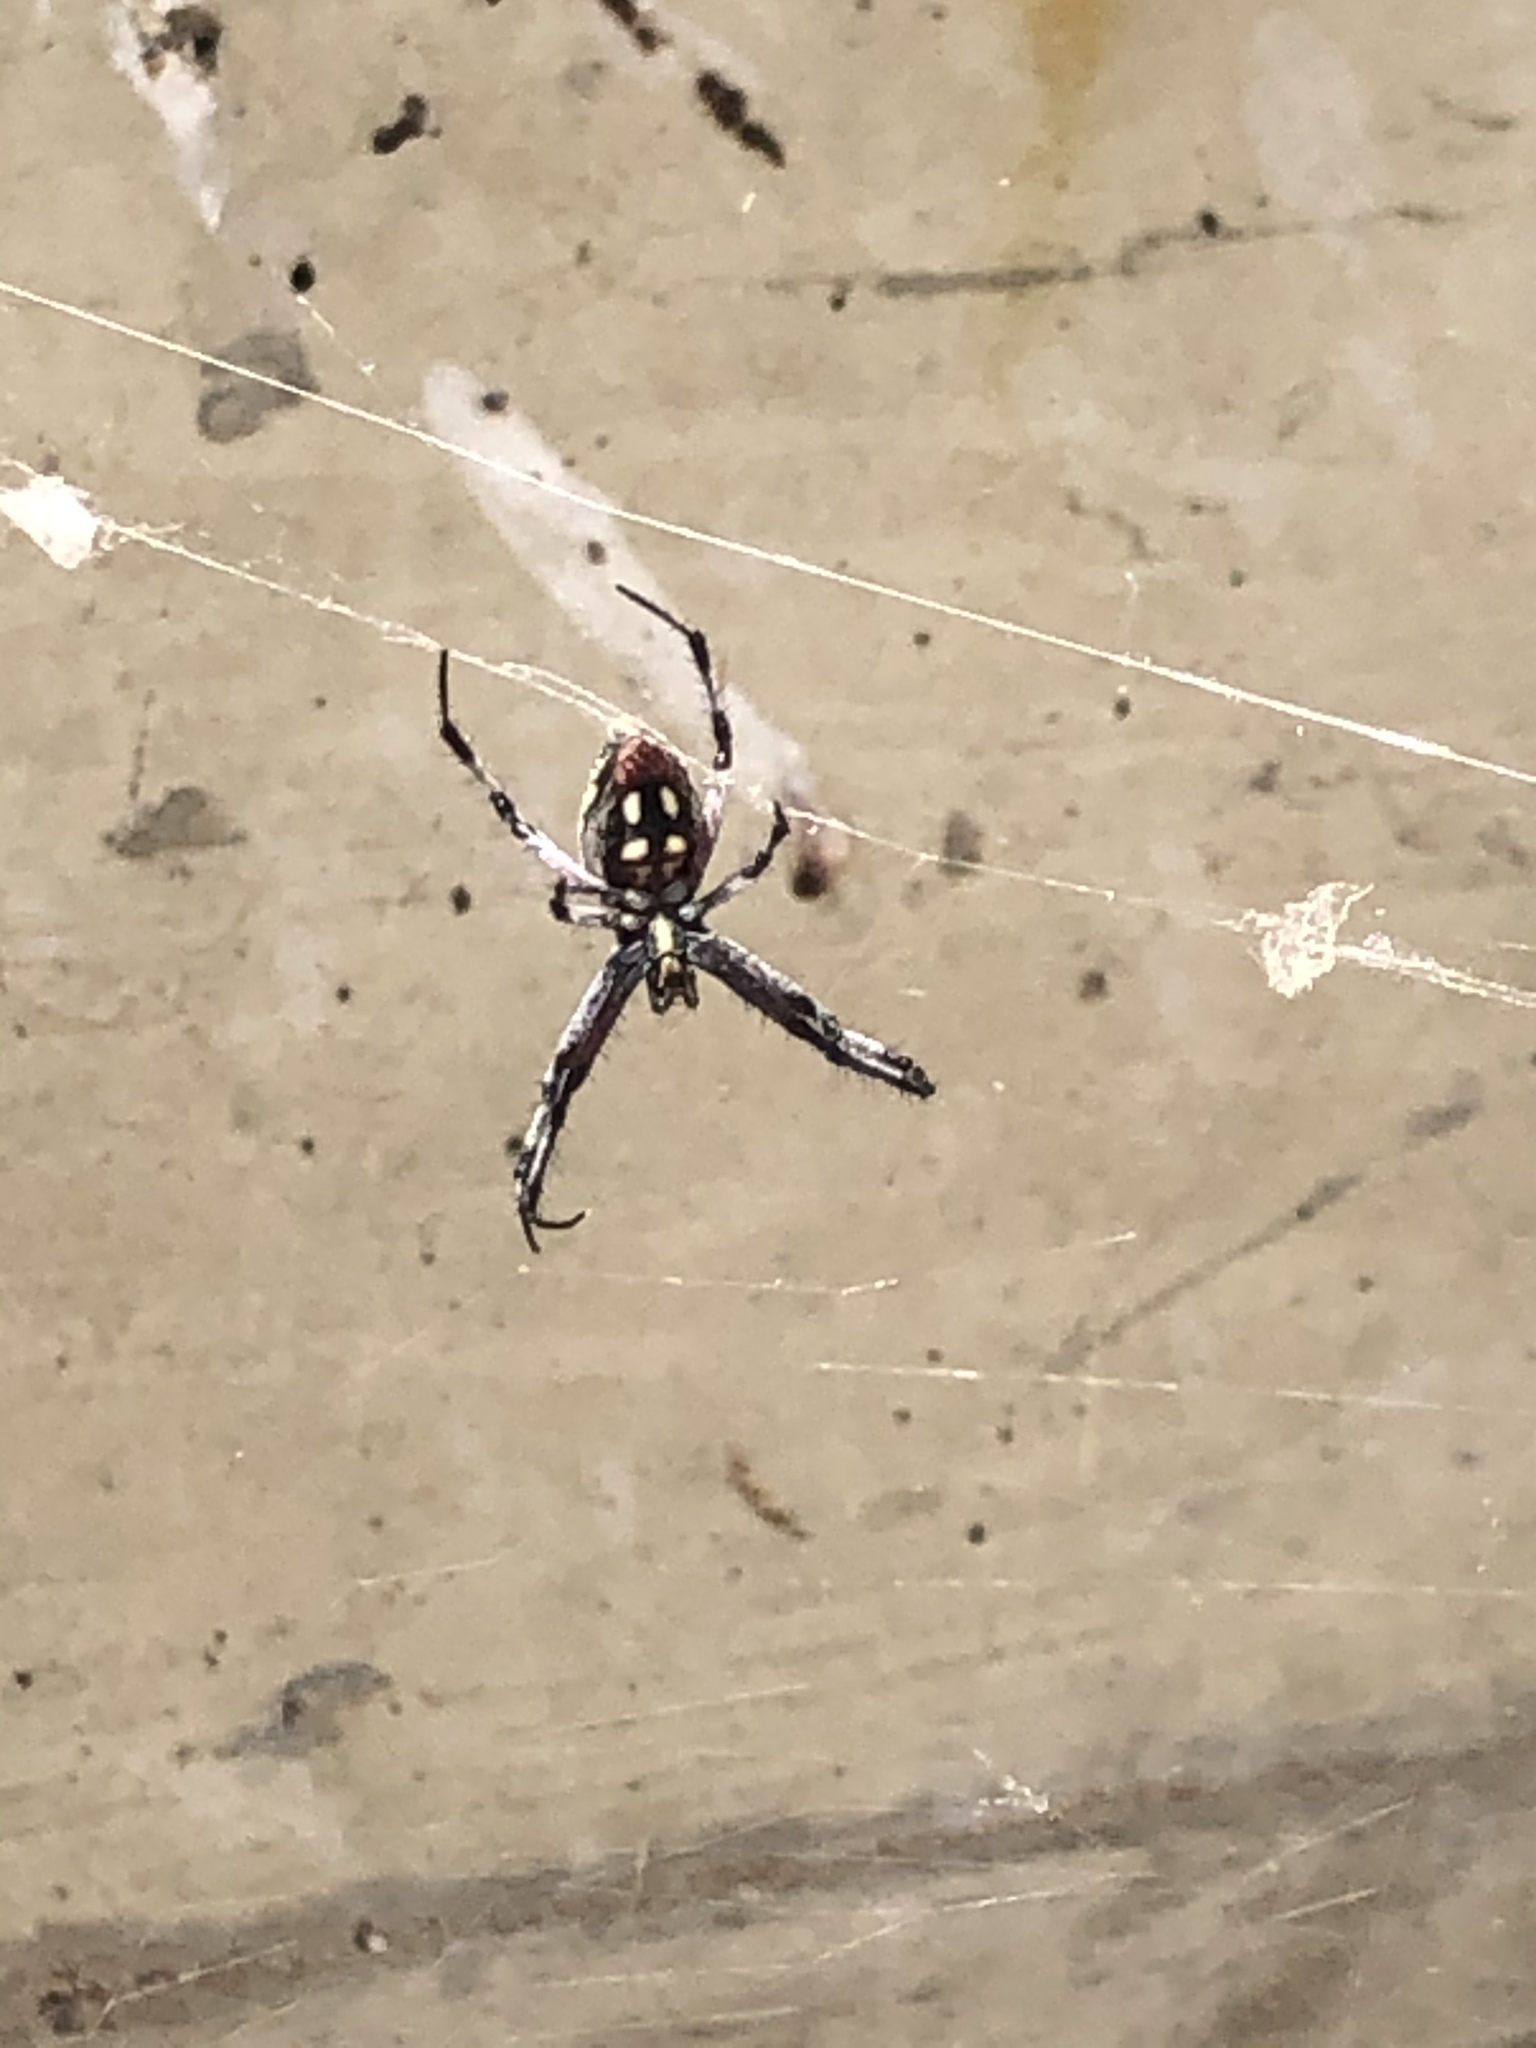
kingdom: Animalia
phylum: Arthropoda
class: Arachnida
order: Araneae
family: Araneidae
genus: Neoscona
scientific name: Neoscona oaxacensis
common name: Orb weavers
